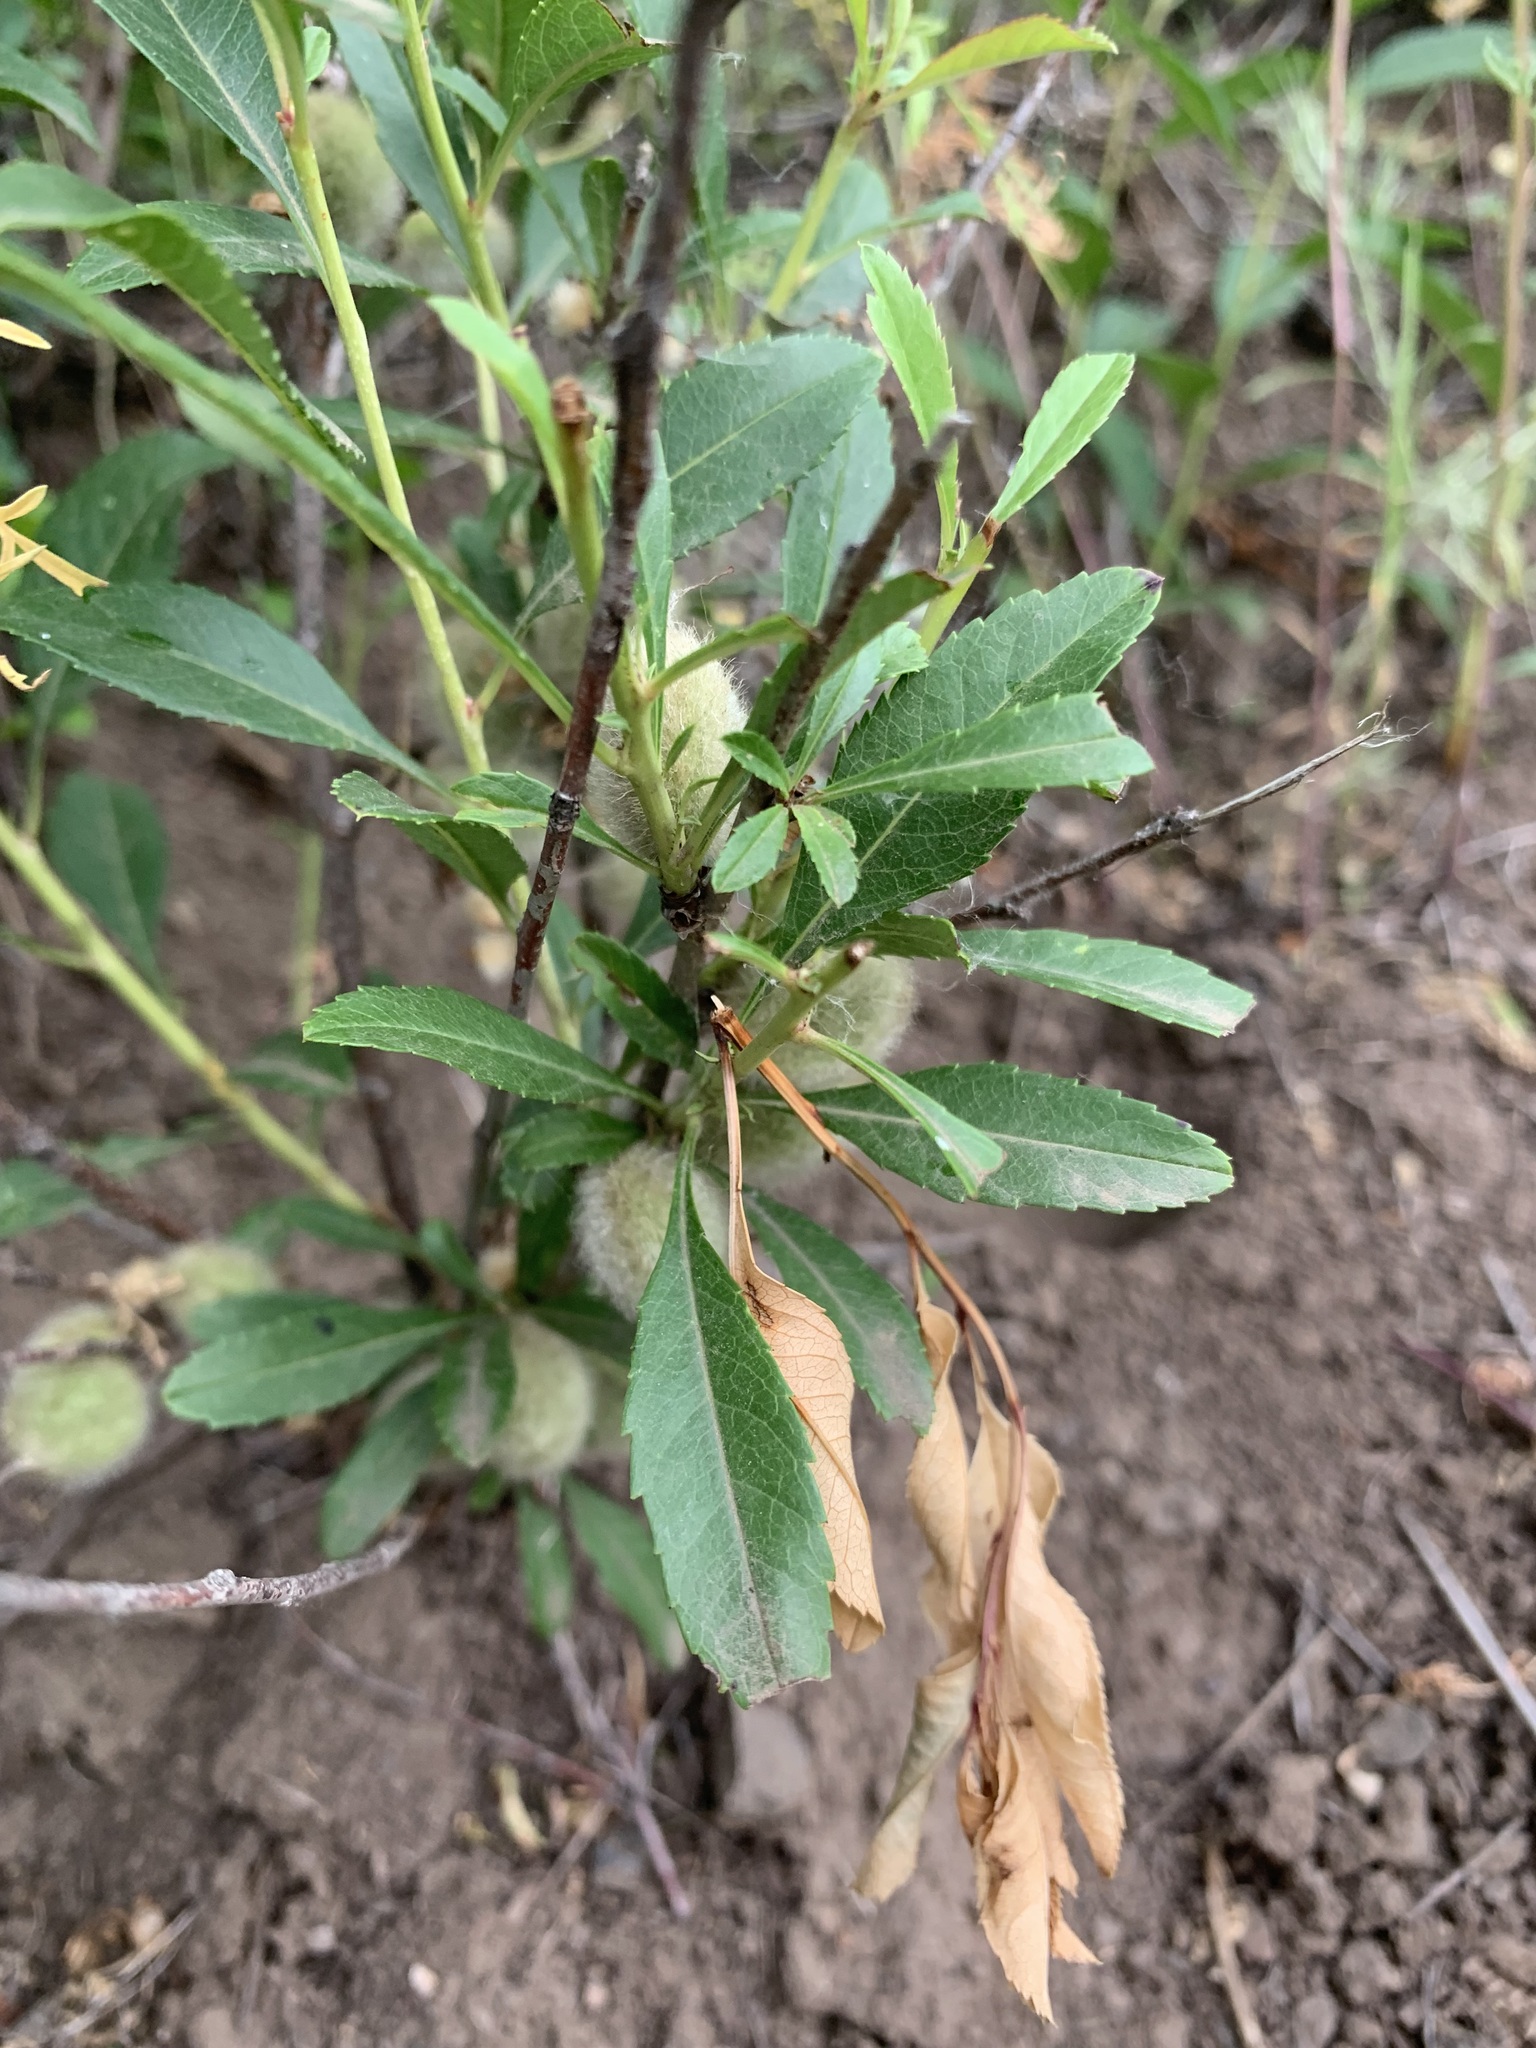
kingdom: Plantae
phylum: Tracheophyta
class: Magnoliopsida
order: Rosales
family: Rosaceae
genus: Prunus
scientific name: Prunus tenella
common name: Dwarf russian almond
